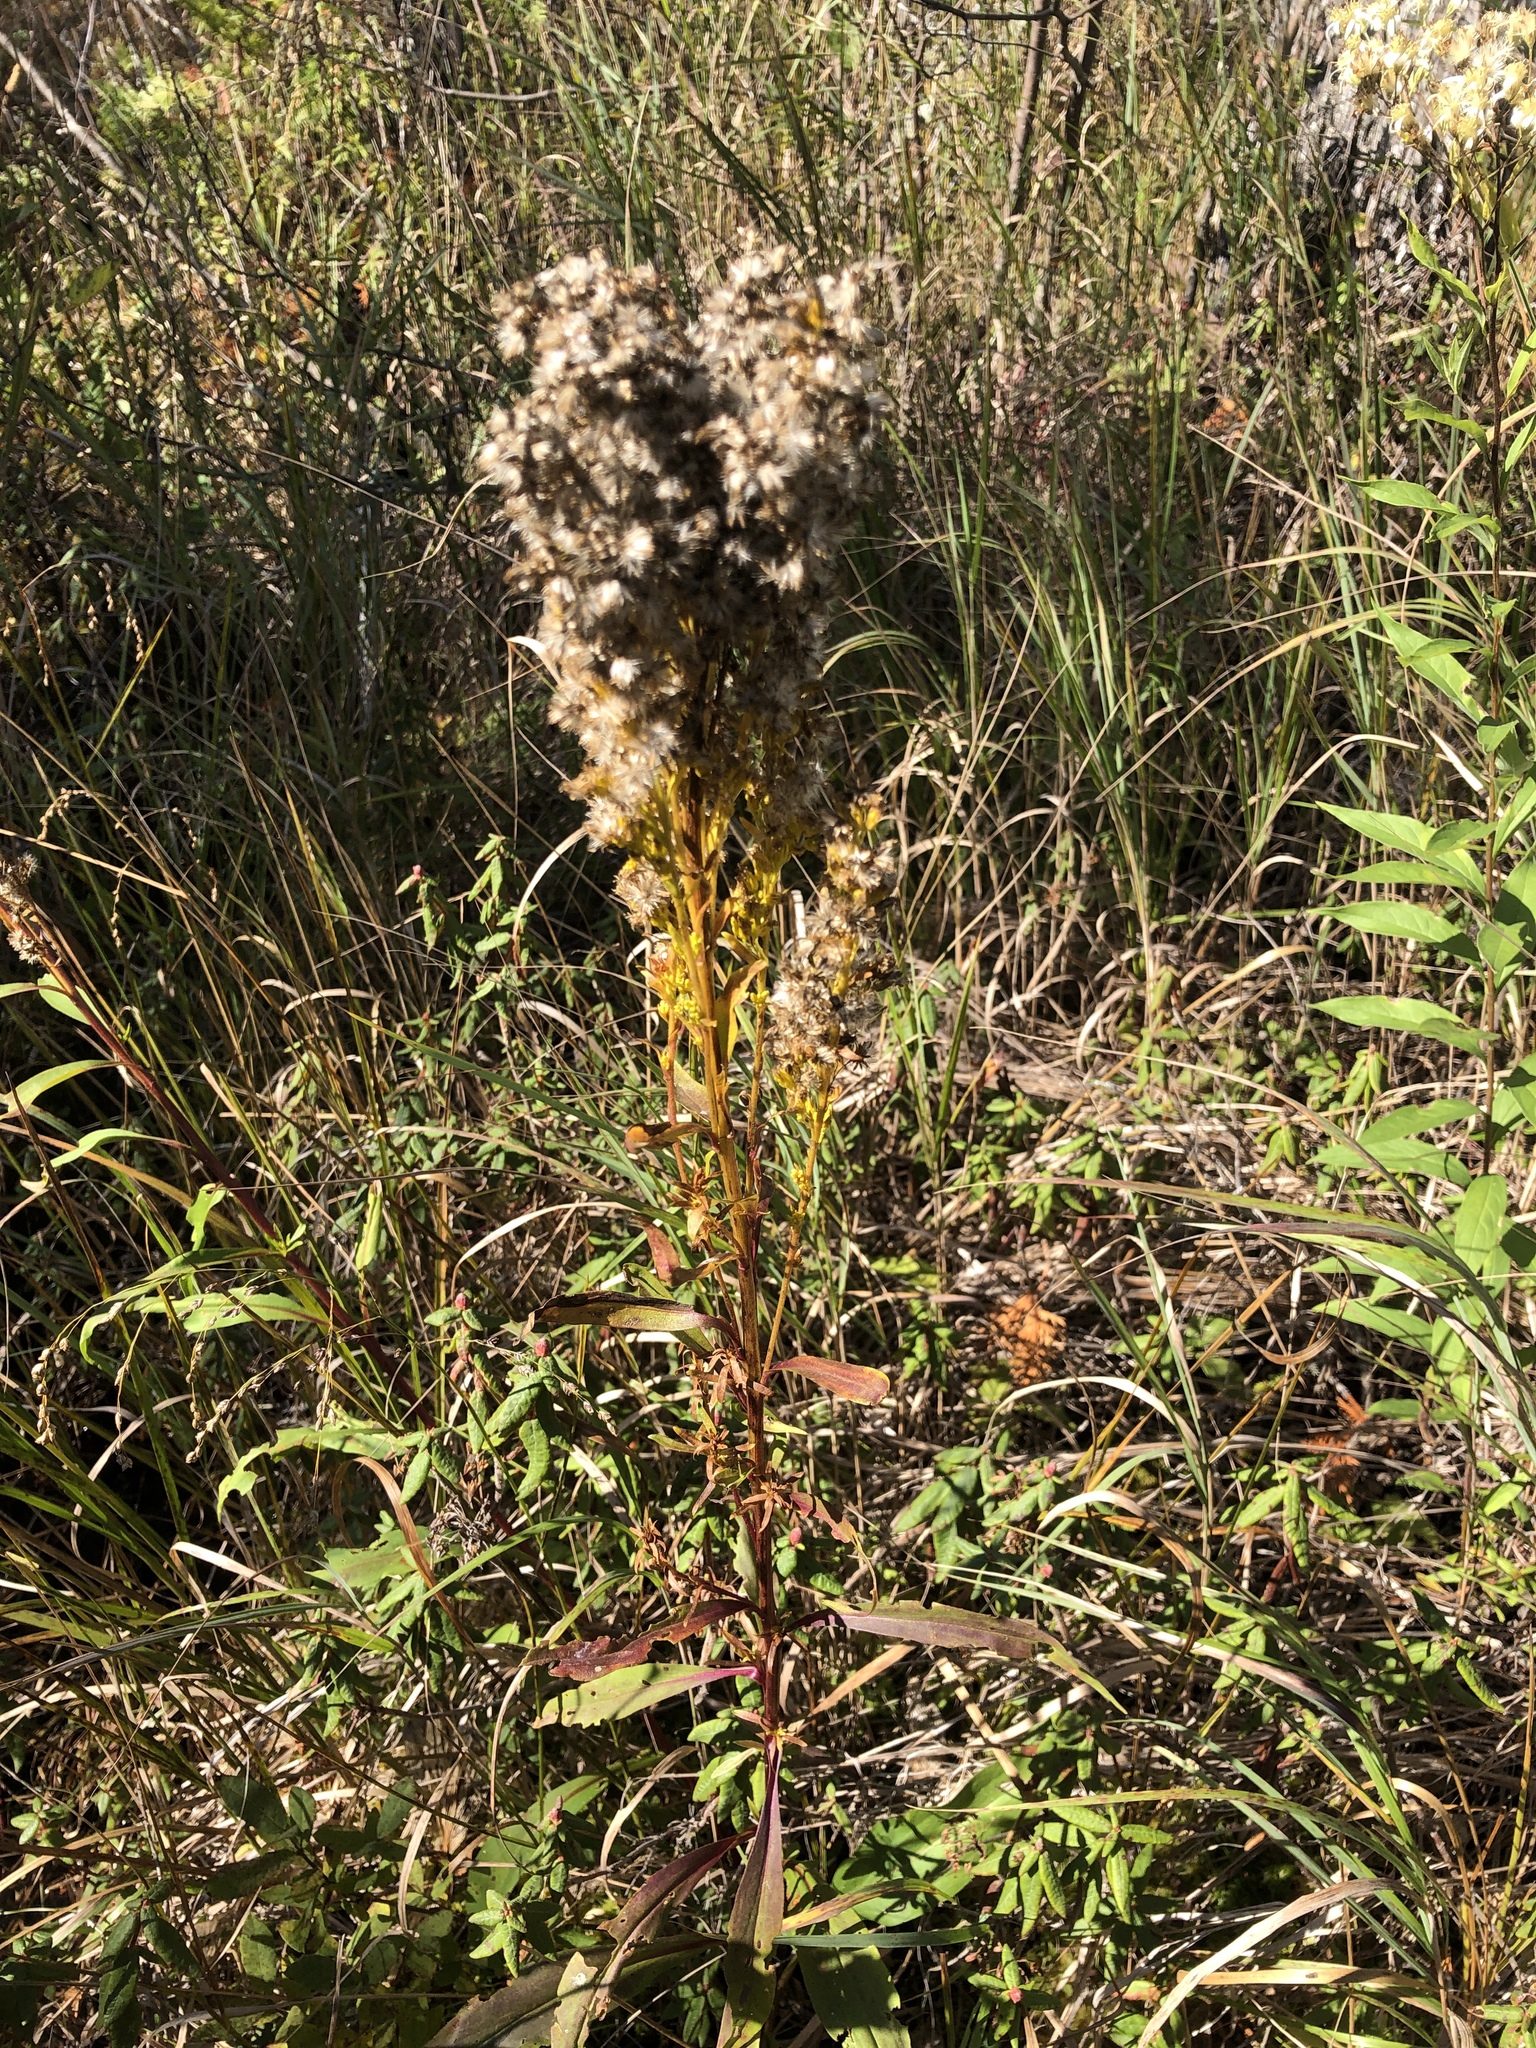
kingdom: Plantae
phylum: Tracheophyta
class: Magnoliopsida
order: Asterales
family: Asteraceae
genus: Solidago
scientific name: Solidago uliginosa
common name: Bog goldenrod
